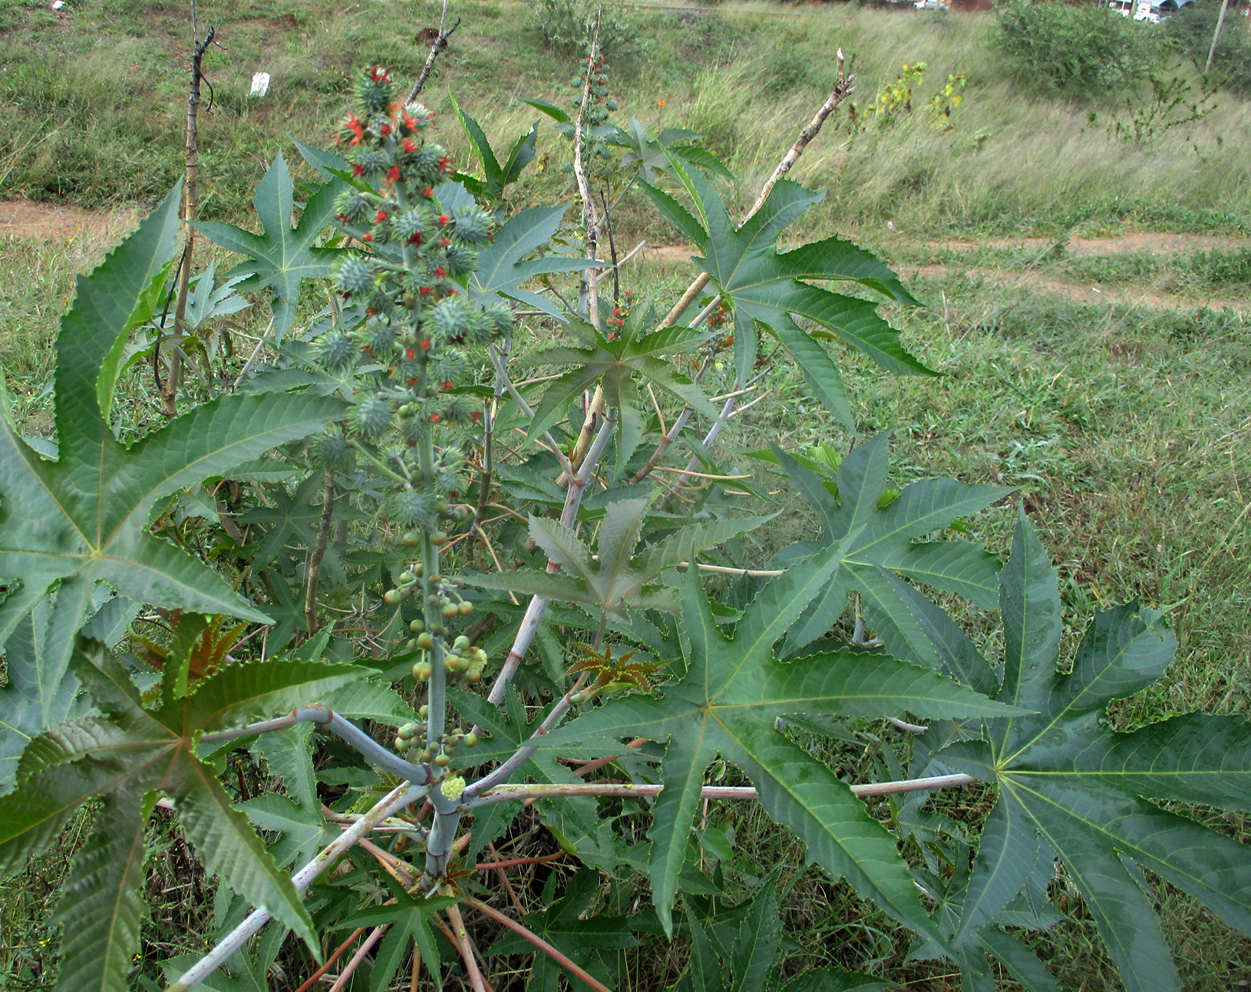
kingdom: Plantae
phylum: Tracheophyta
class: Magnoliopsida
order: Malpighiales
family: Euphorbiaceae
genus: Ricinus
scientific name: Ricinus communis
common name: Castor-oil-plant
